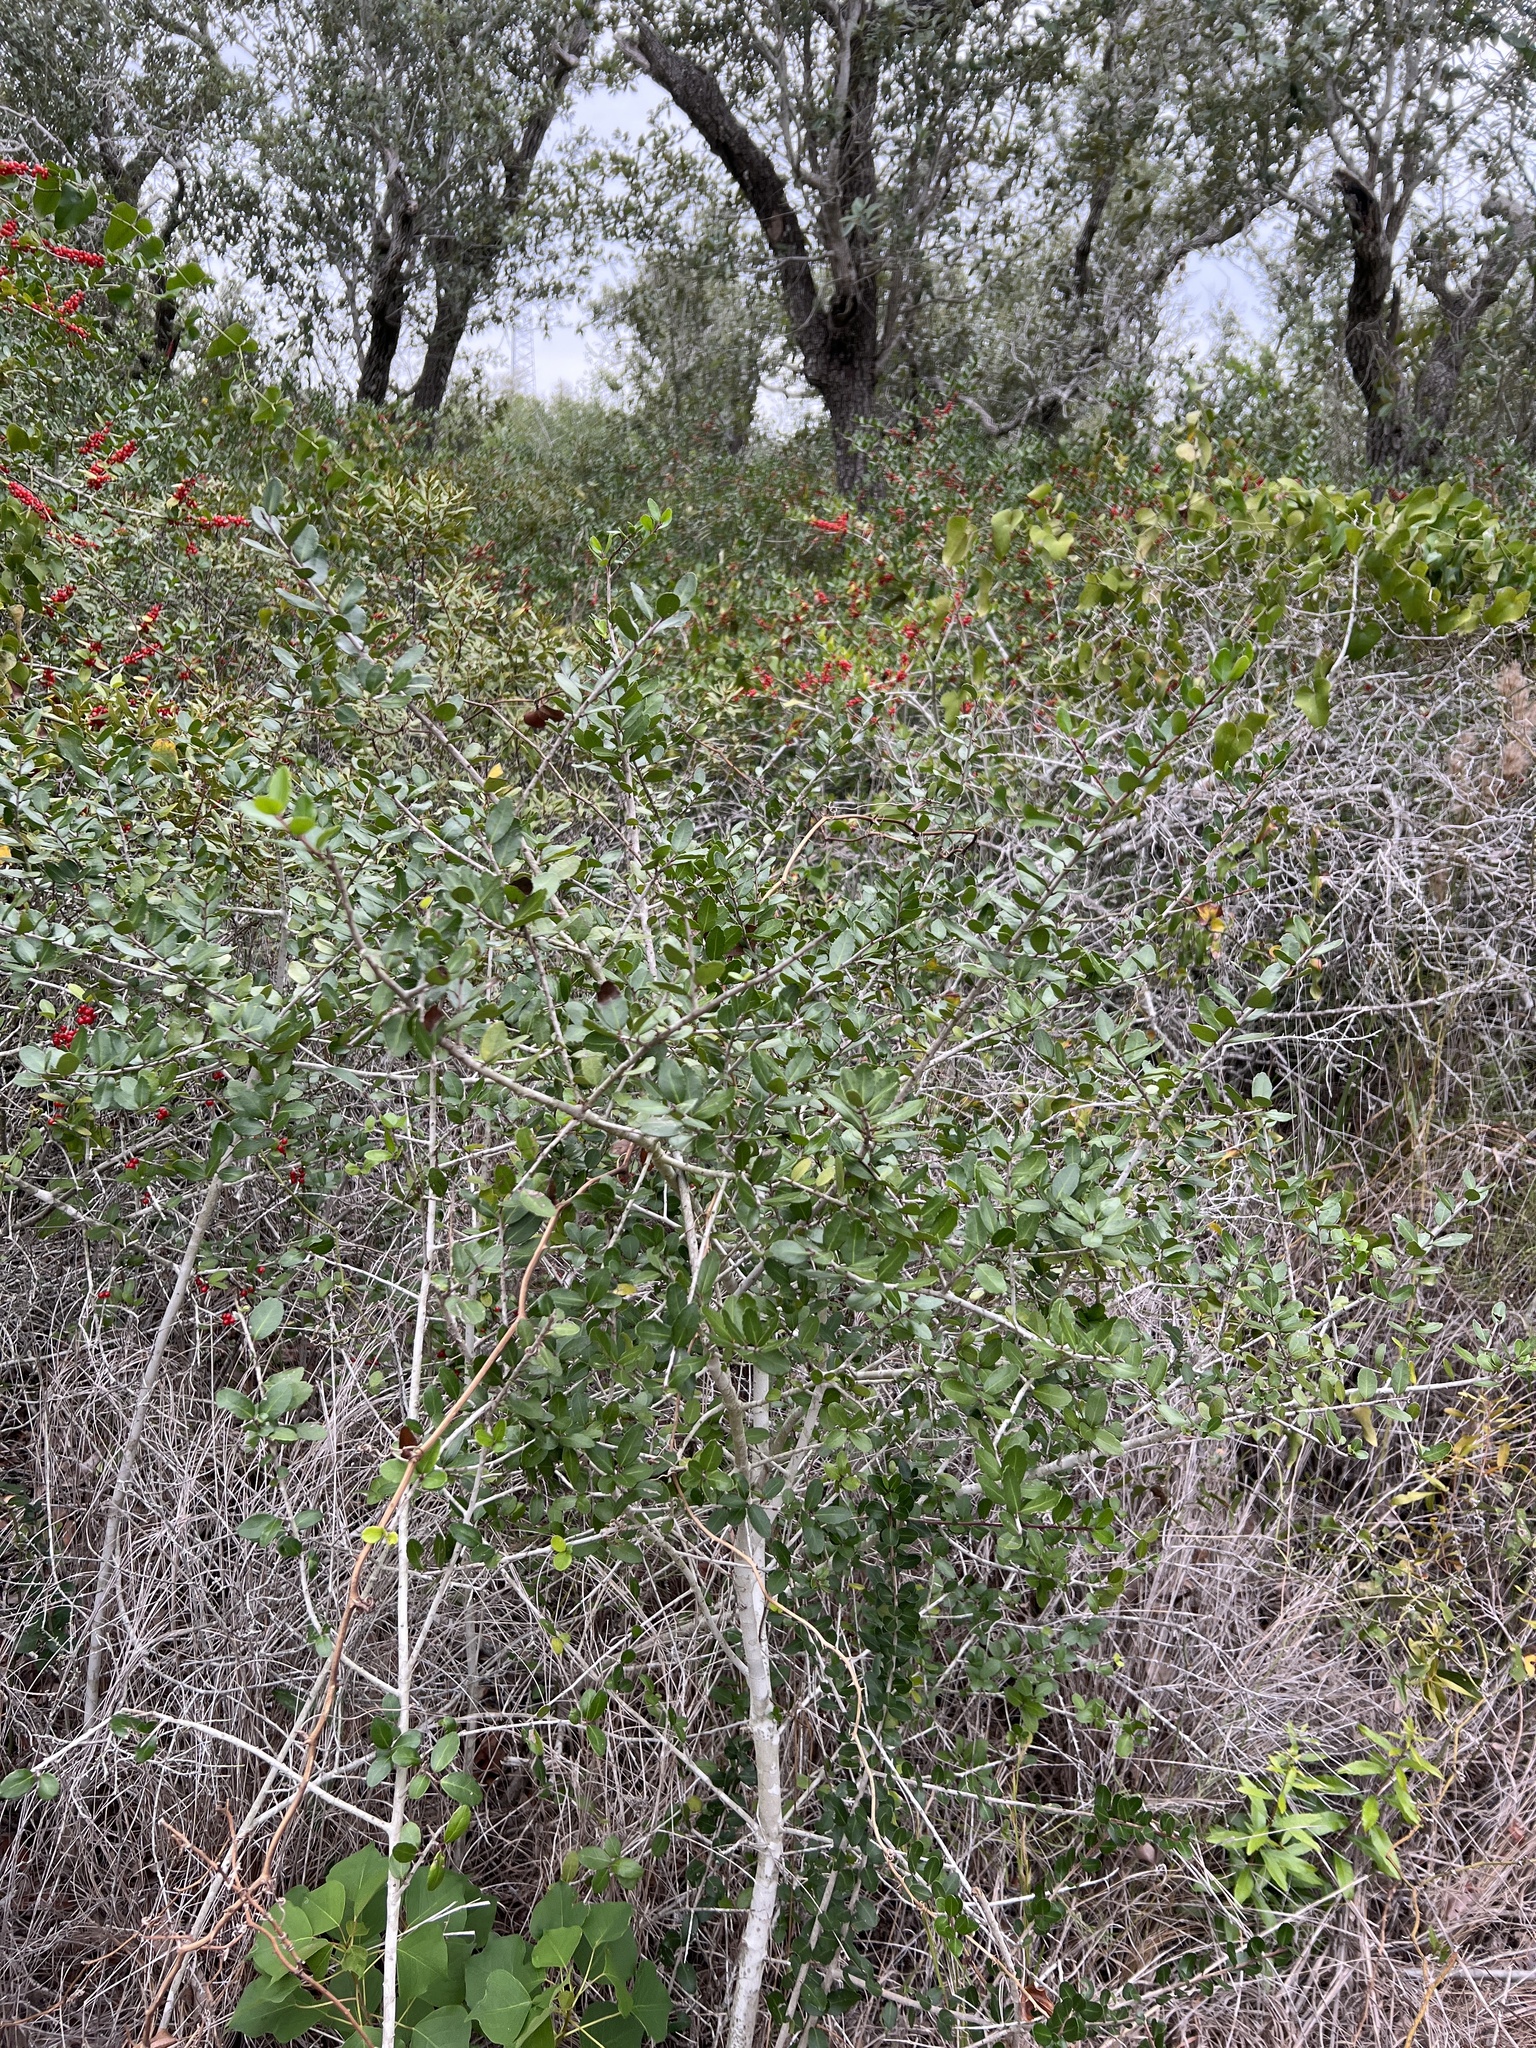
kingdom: Plantae
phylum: Tracheophyta
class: Magnoliopsida
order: Aquifoliales
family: Aquifoliaceae
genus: Ilex
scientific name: Ilex vomitoria
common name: Yaupon holly
